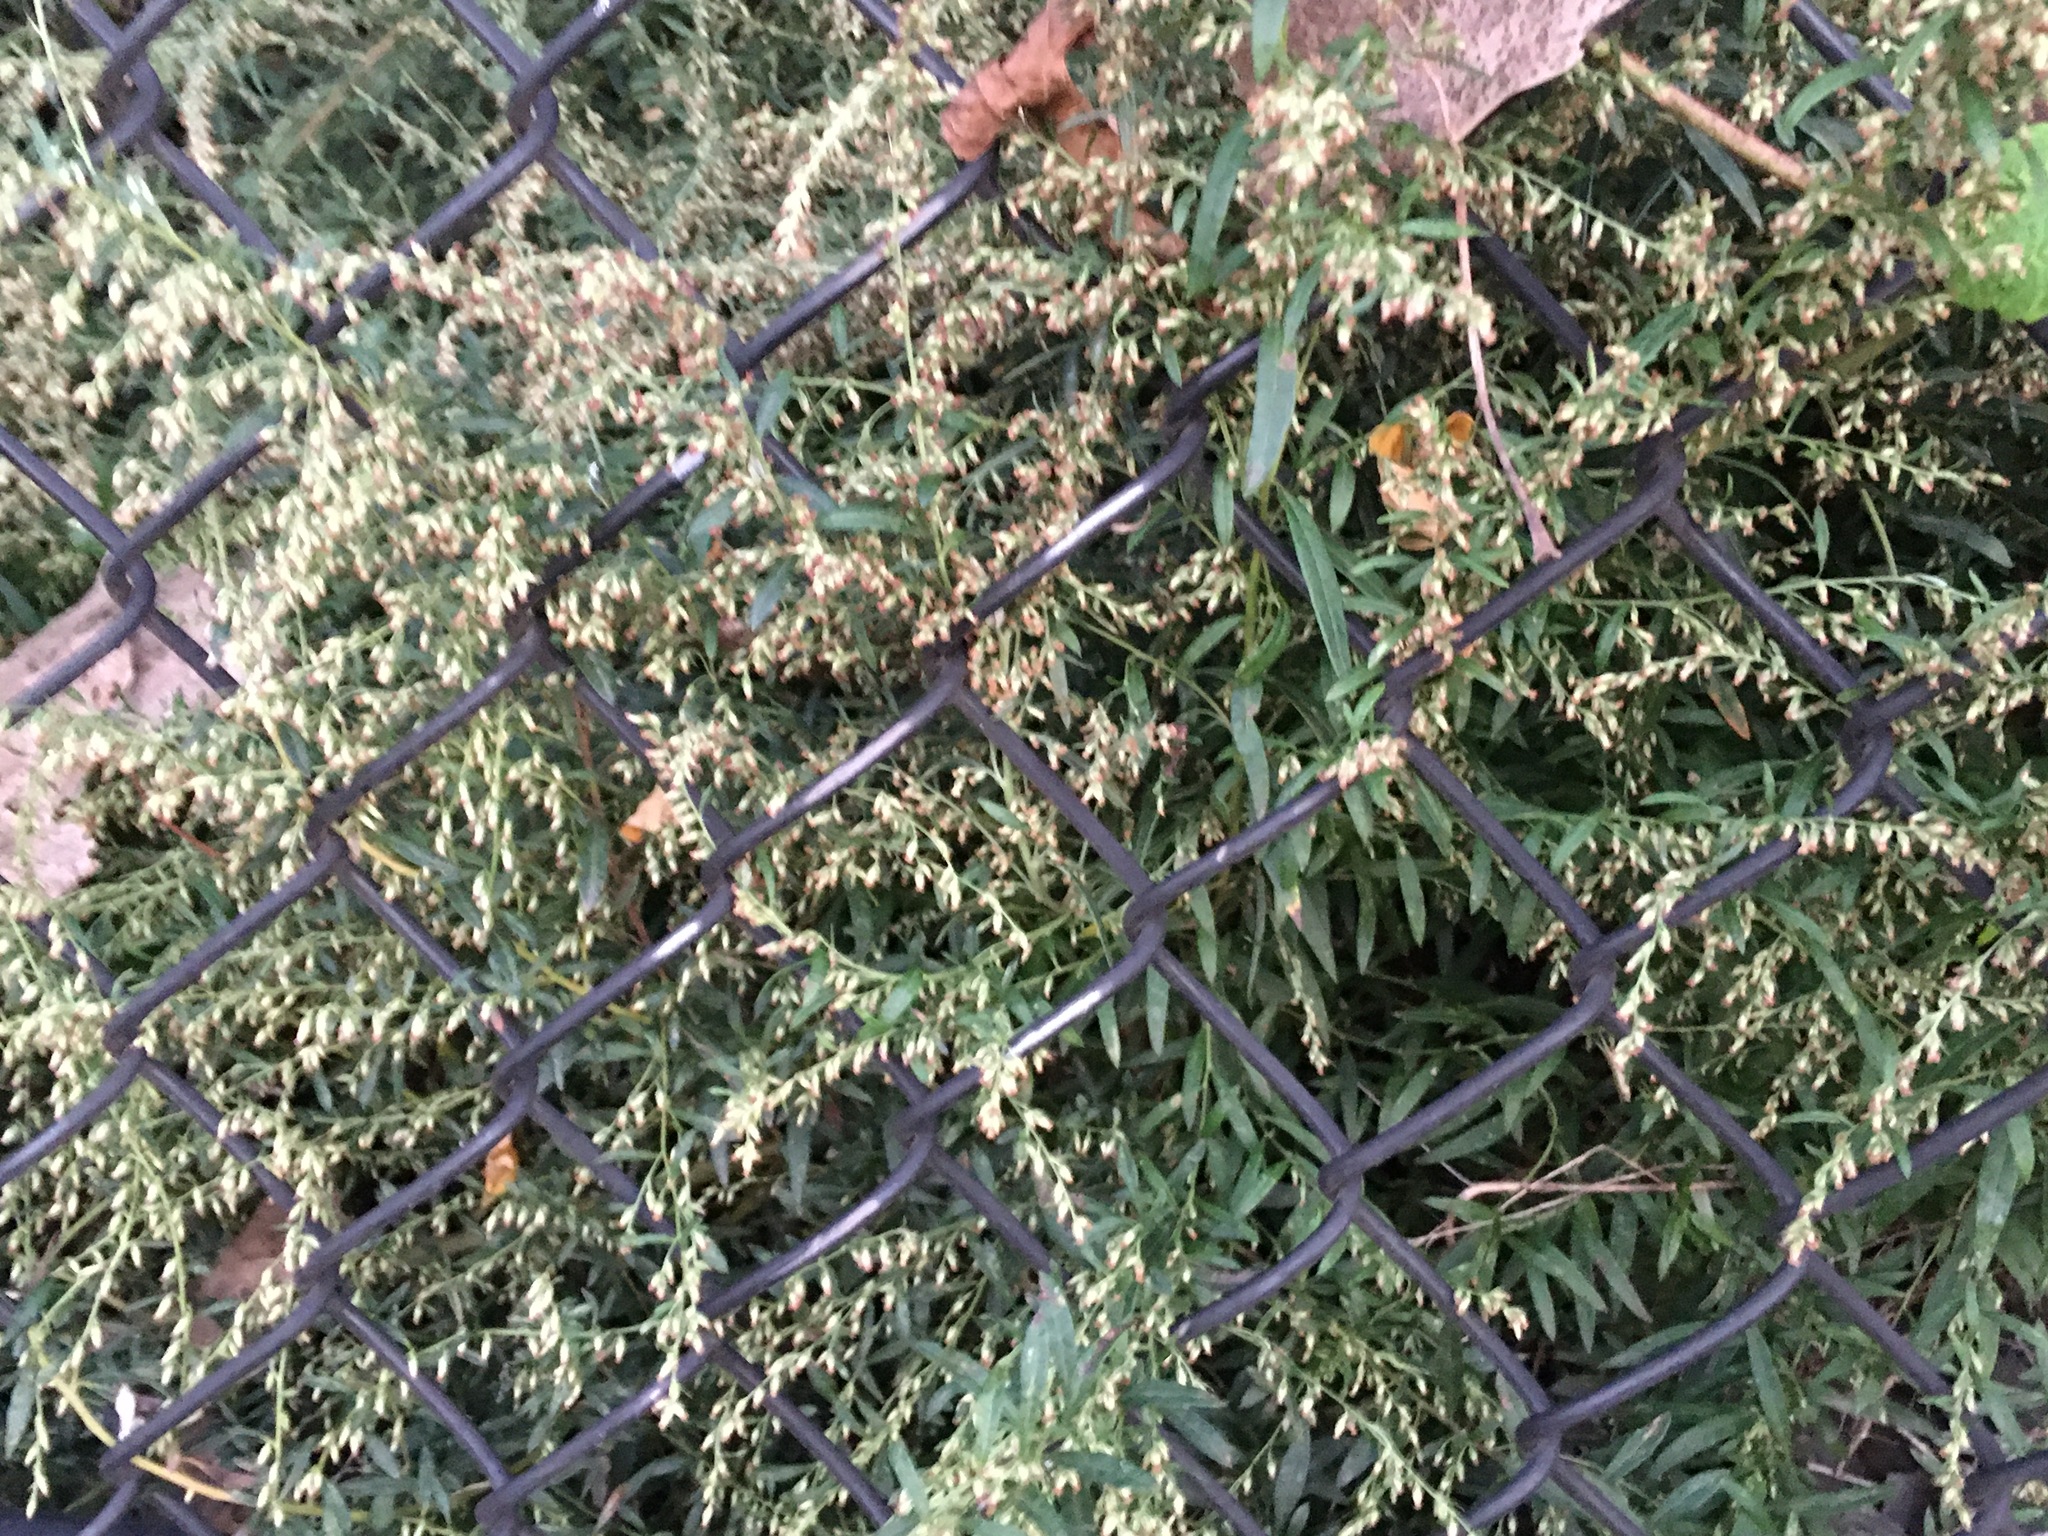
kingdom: Plantae
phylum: Tracheophyta
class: Magnoliopsida
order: Asterales
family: Asteraceae
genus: Artemisia
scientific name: Artemisia vulgaris
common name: Mugwort
